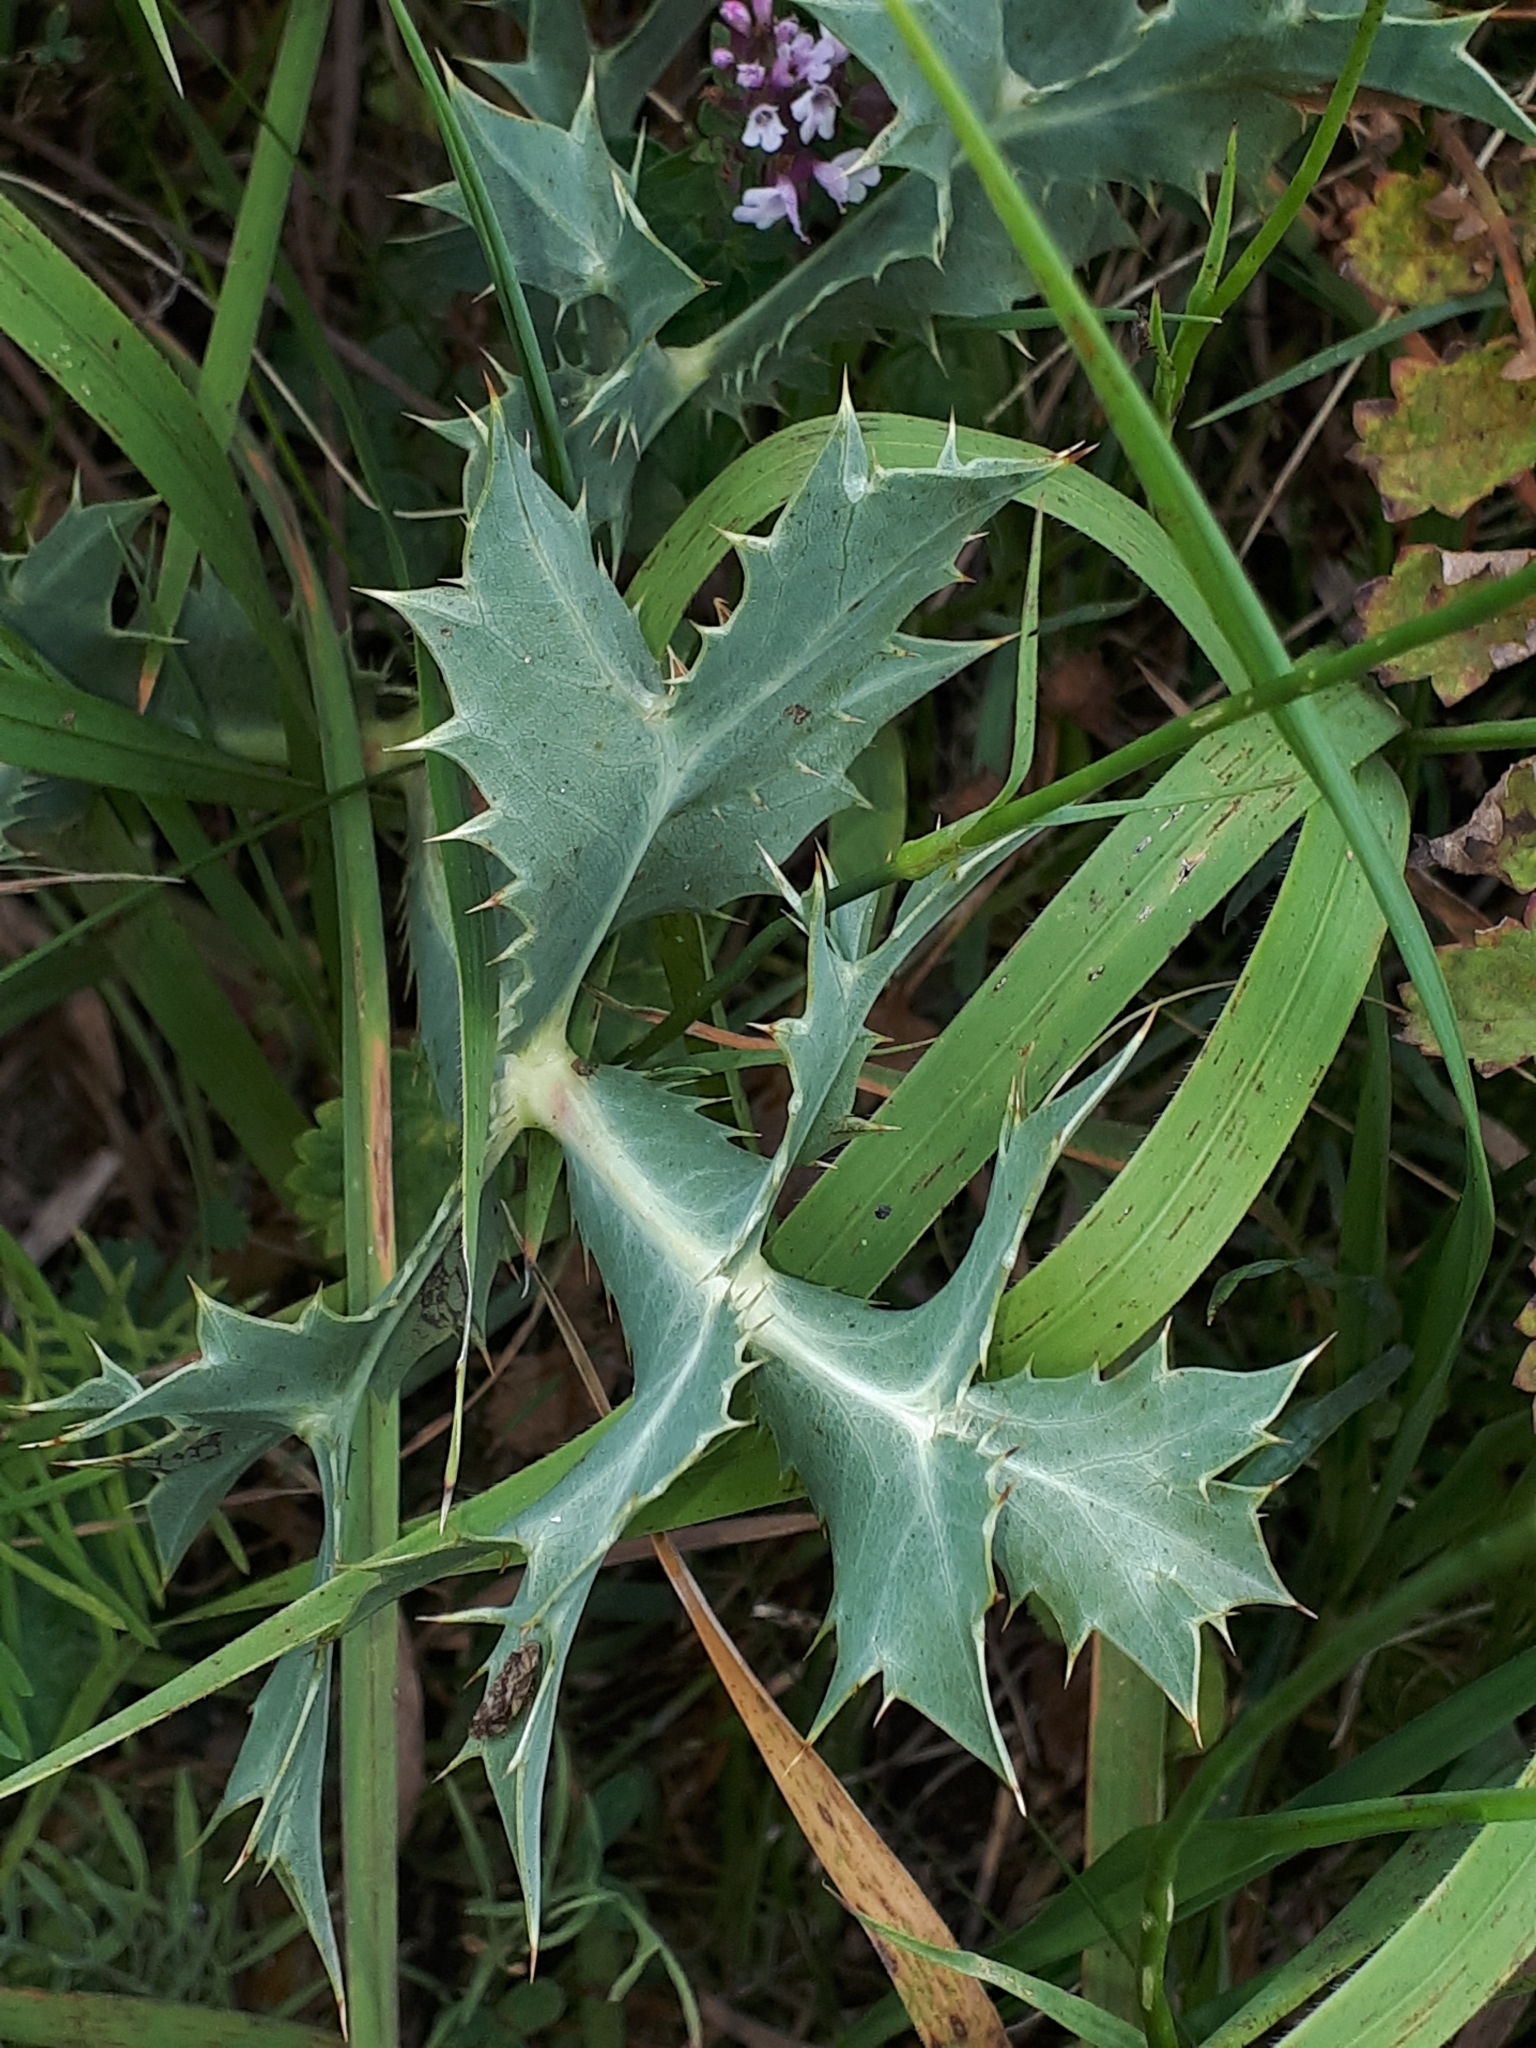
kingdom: Plantae
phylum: Tracheophyta
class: Magnoliopsida
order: Apiales
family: Apiaceae
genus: Eryngium
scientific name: Eryngium campestre
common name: Field eryngo
